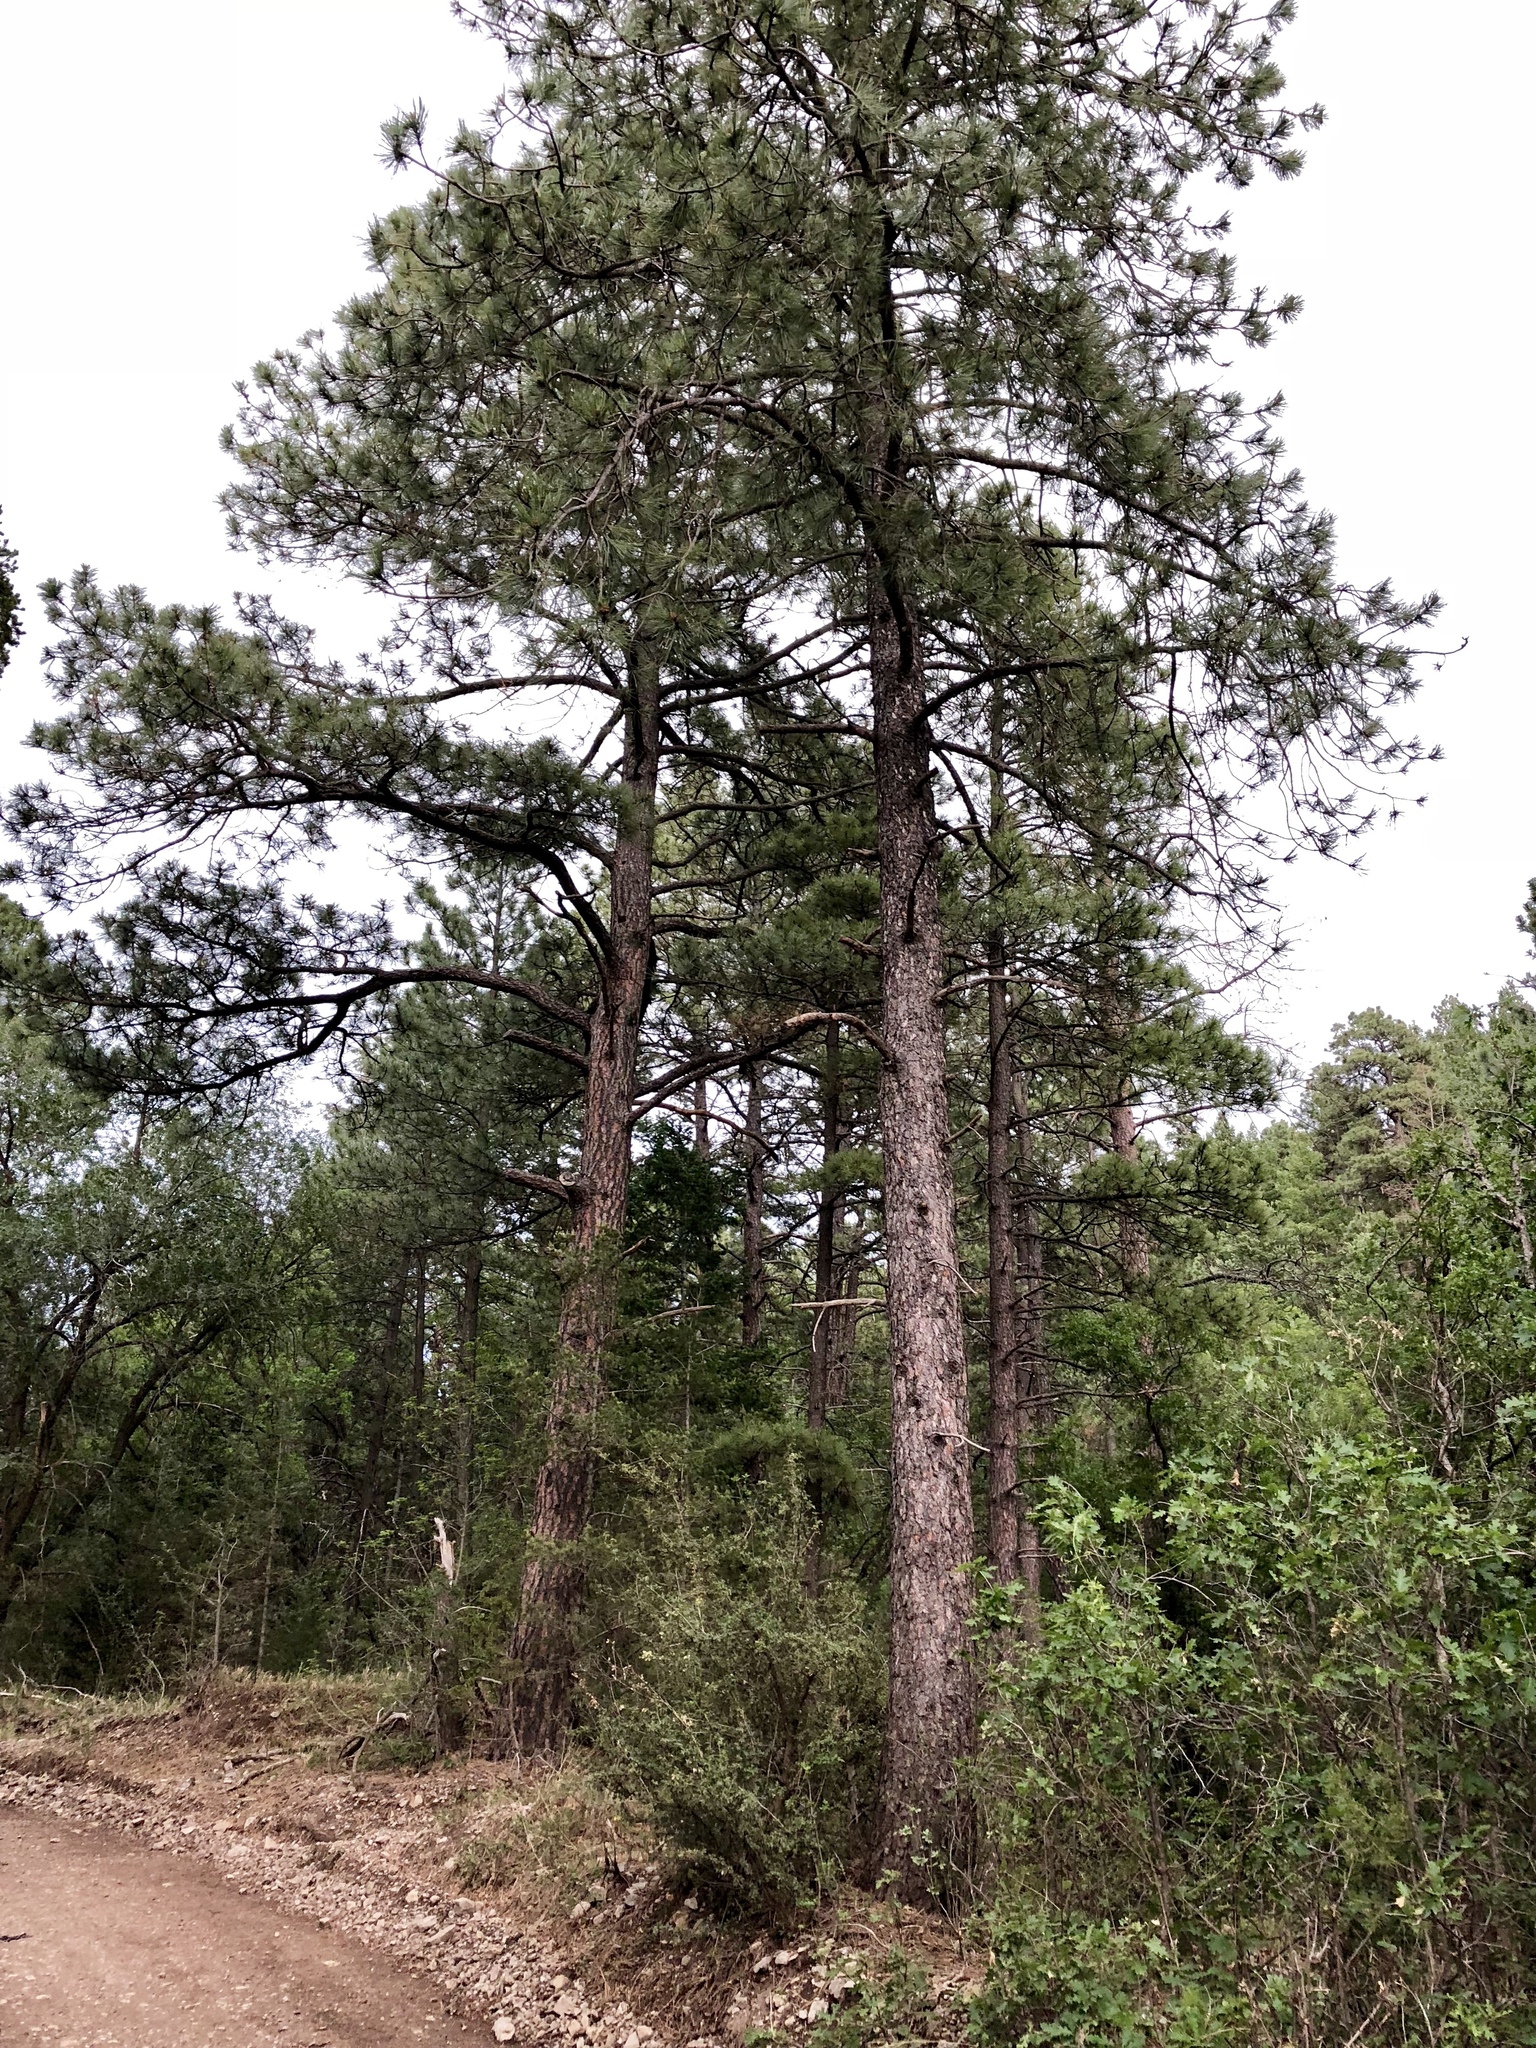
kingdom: Plantae
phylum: Tracheophyta
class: Pinopsida
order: Pinales
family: Pinaceae
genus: Pinus
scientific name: Pinus ponderosa
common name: Western yellow-pine
